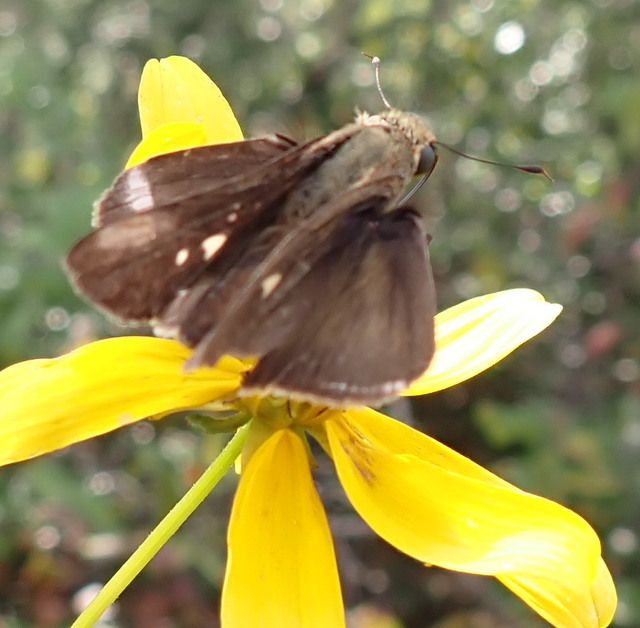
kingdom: Animalia
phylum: Arthropoda
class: Insecta
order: Lepidoptera
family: Hesperiidae
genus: Panoquina
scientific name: Panoquina ocola
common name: Ocola skipper
